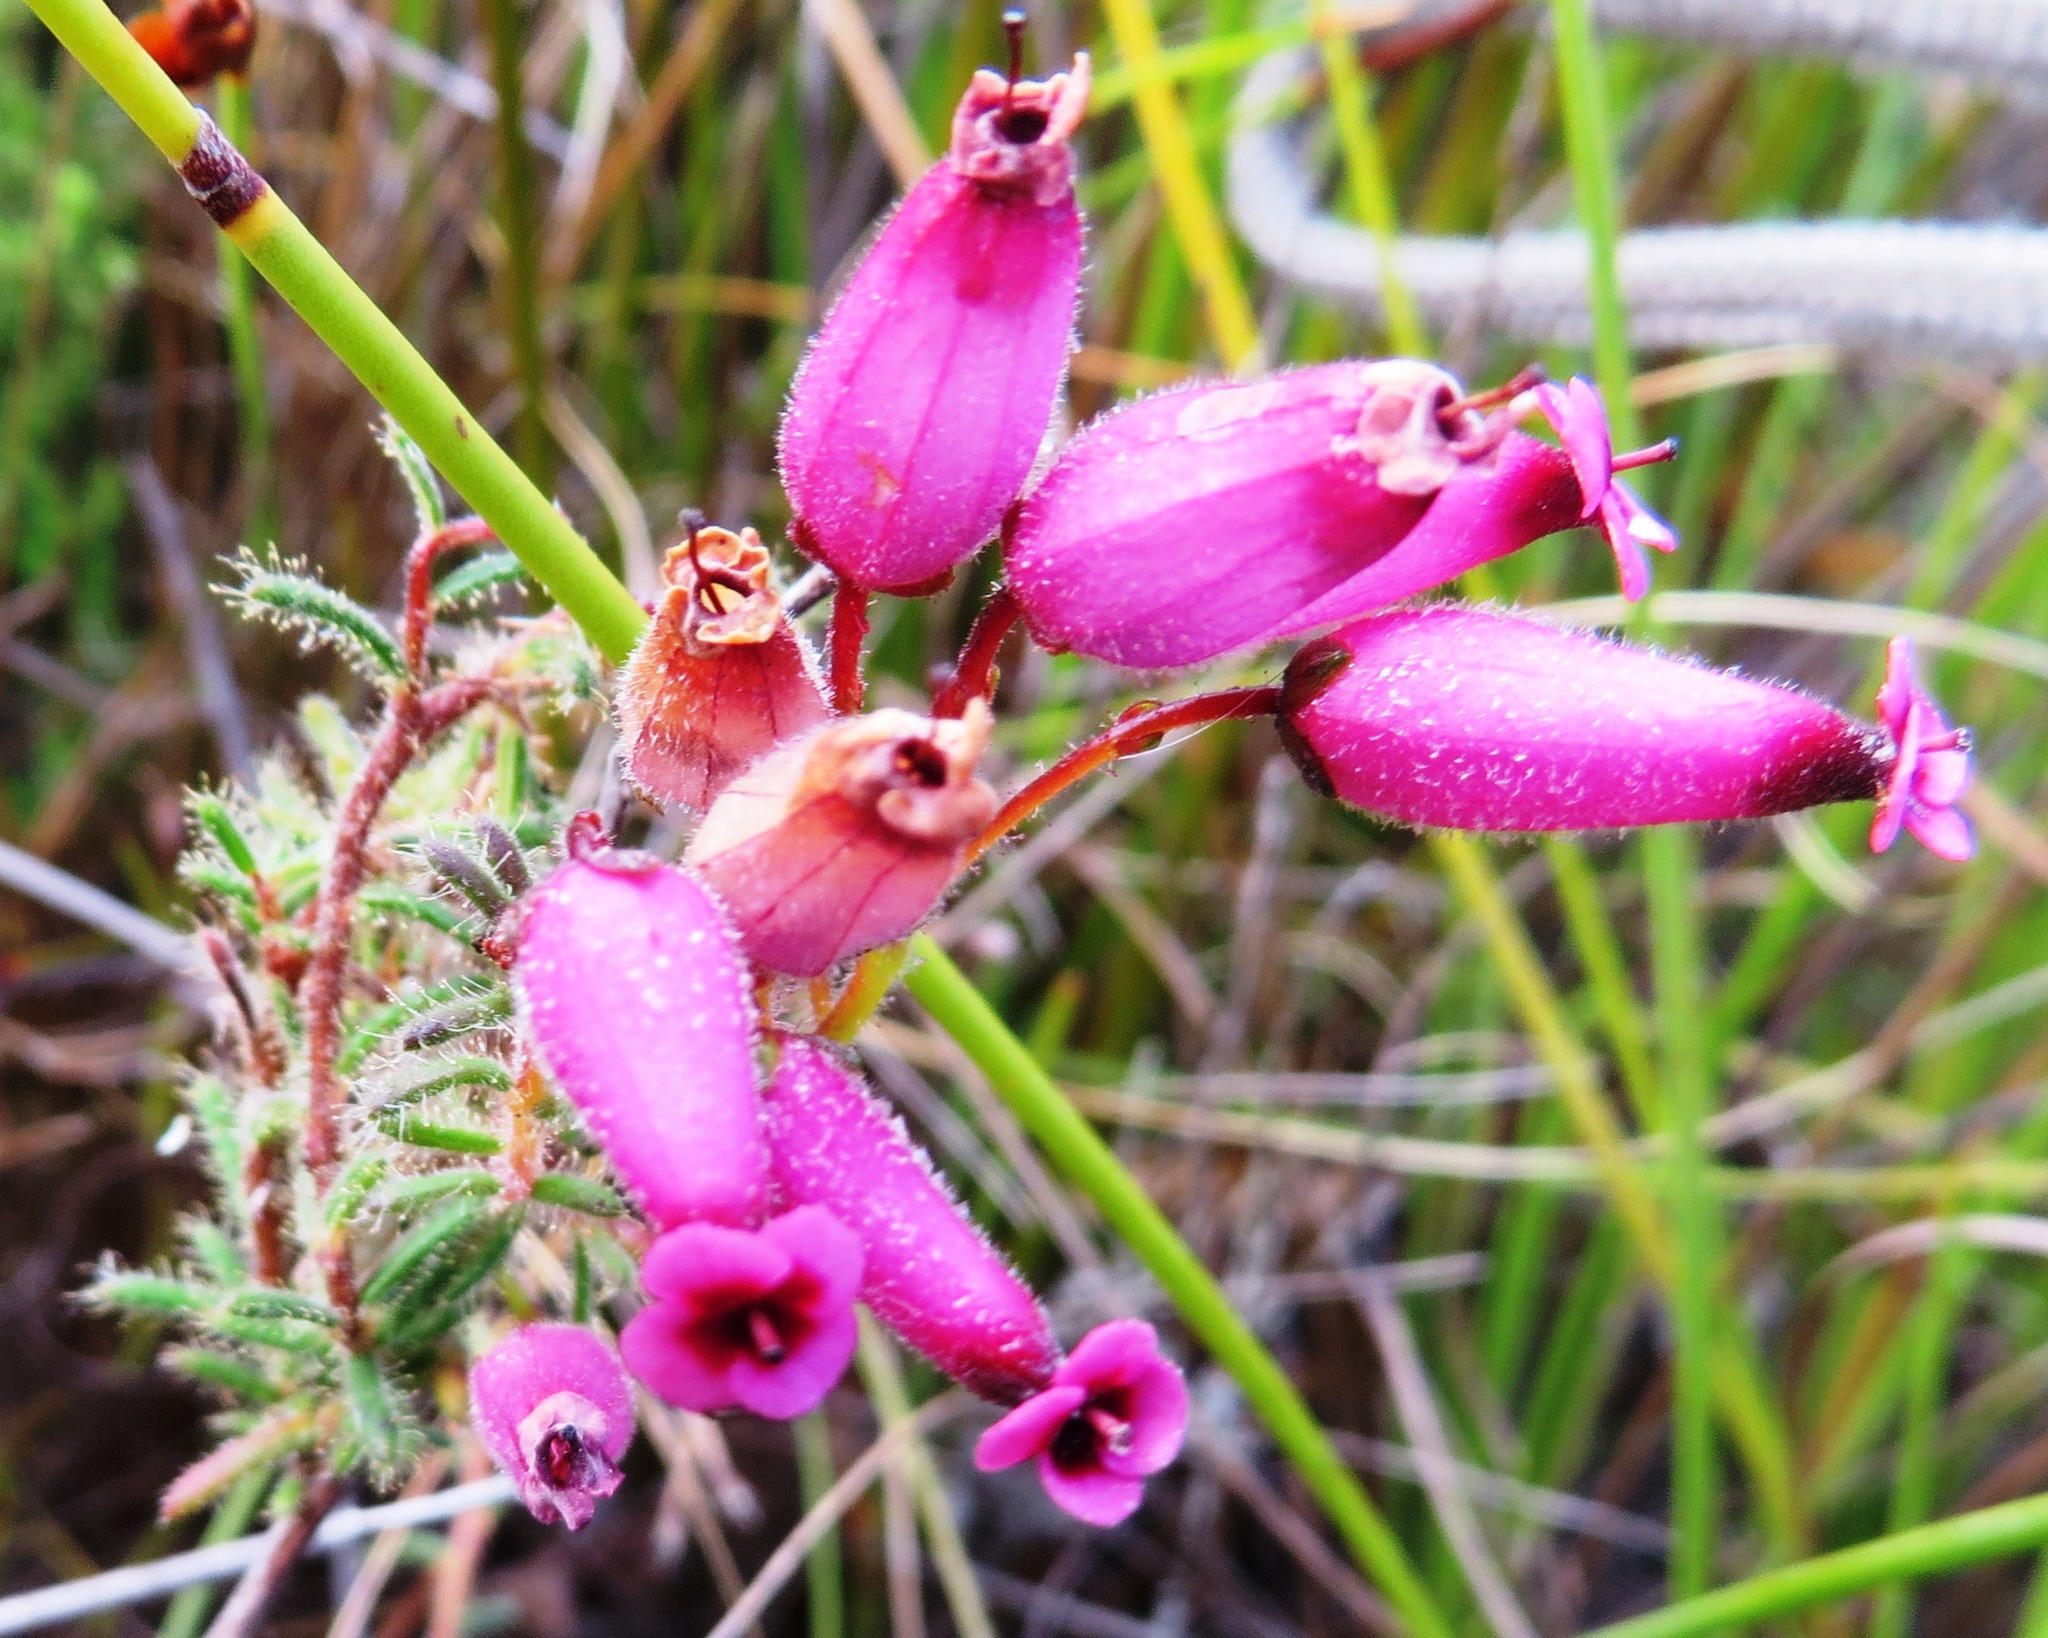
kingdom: Plantae
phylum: Tracheophyta
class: Magnoliopsida
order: Ericales
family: Ericaceae
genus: Erica
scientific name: Erica glutinosa
